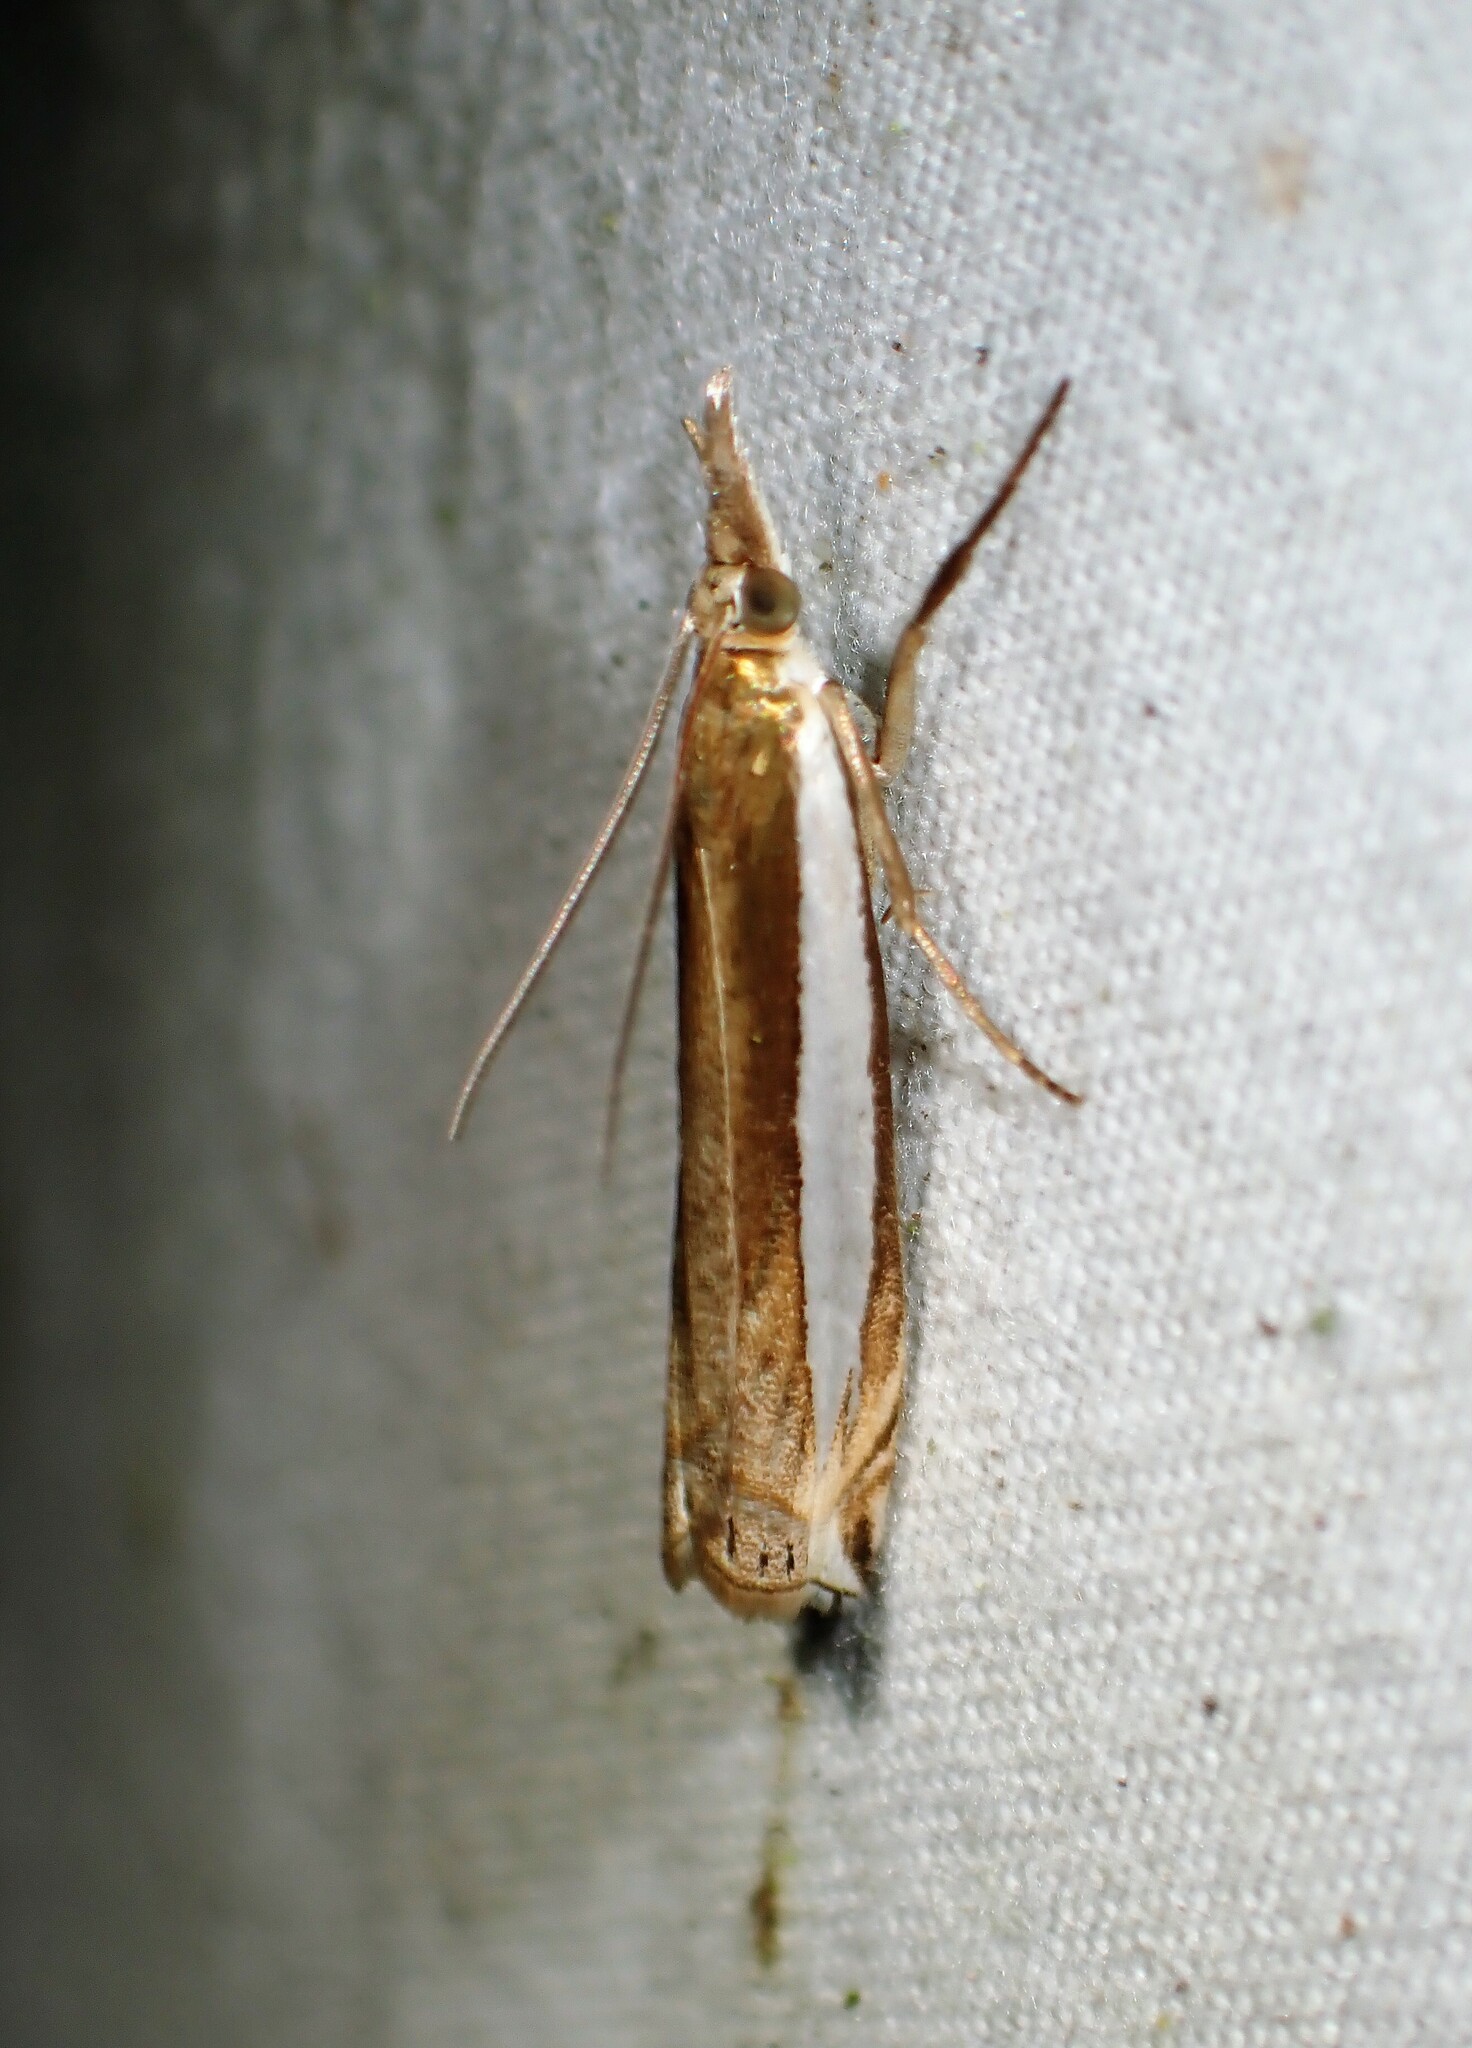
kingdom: Animalia
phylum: Arthropoda
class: Insecta
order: Lepidoptera
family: Crambidae
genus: Crambus
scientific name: Crambus leachellus
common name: Leach's grass-veneer
